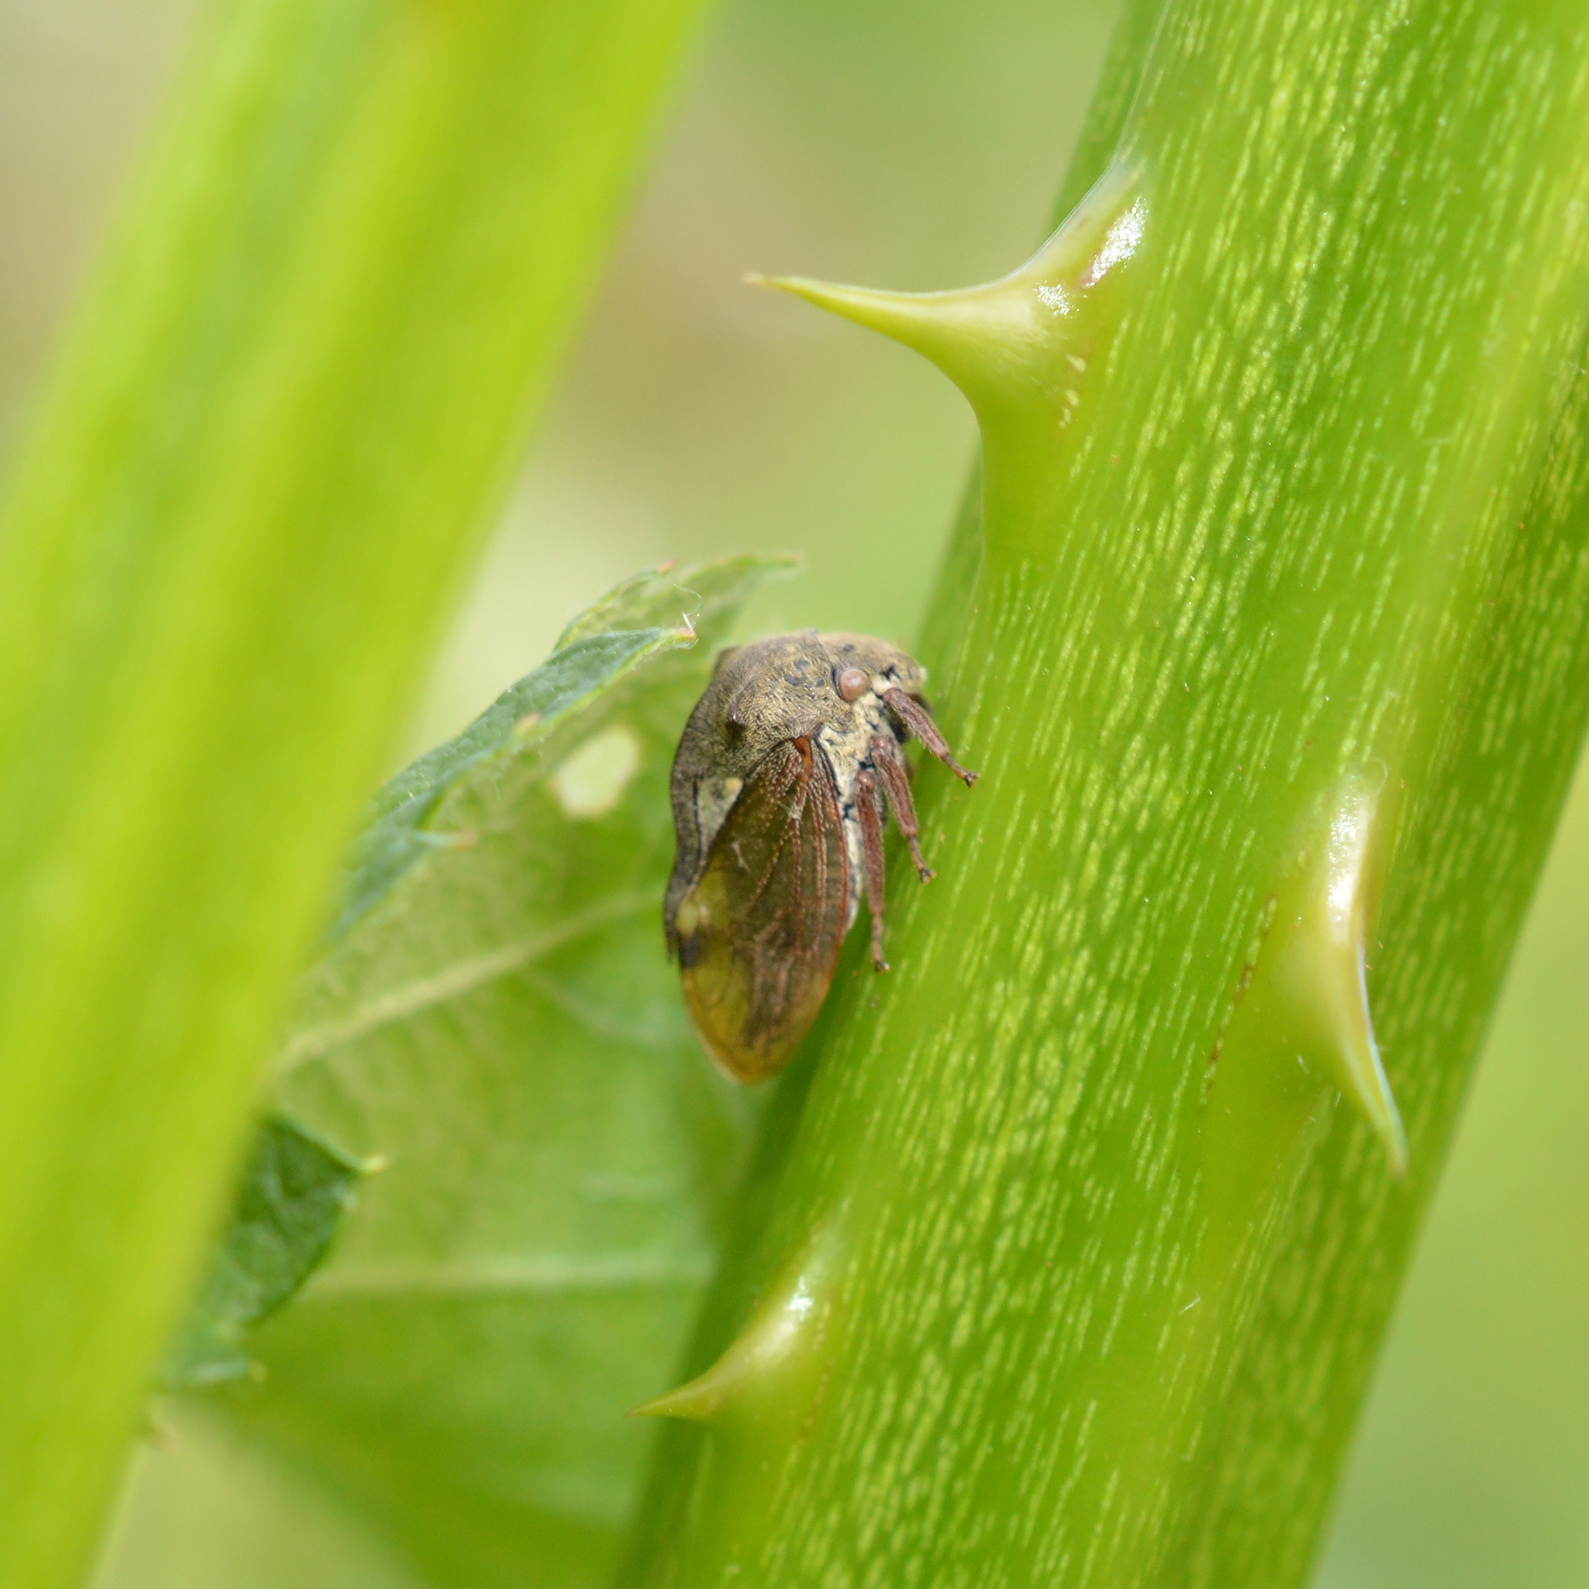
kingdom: Animalia
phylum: Arthropoda
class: Insecta
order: Hemiptera
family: Membracidae
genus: Centrotus
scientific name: Centrotus cornuta
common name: Treehopper
